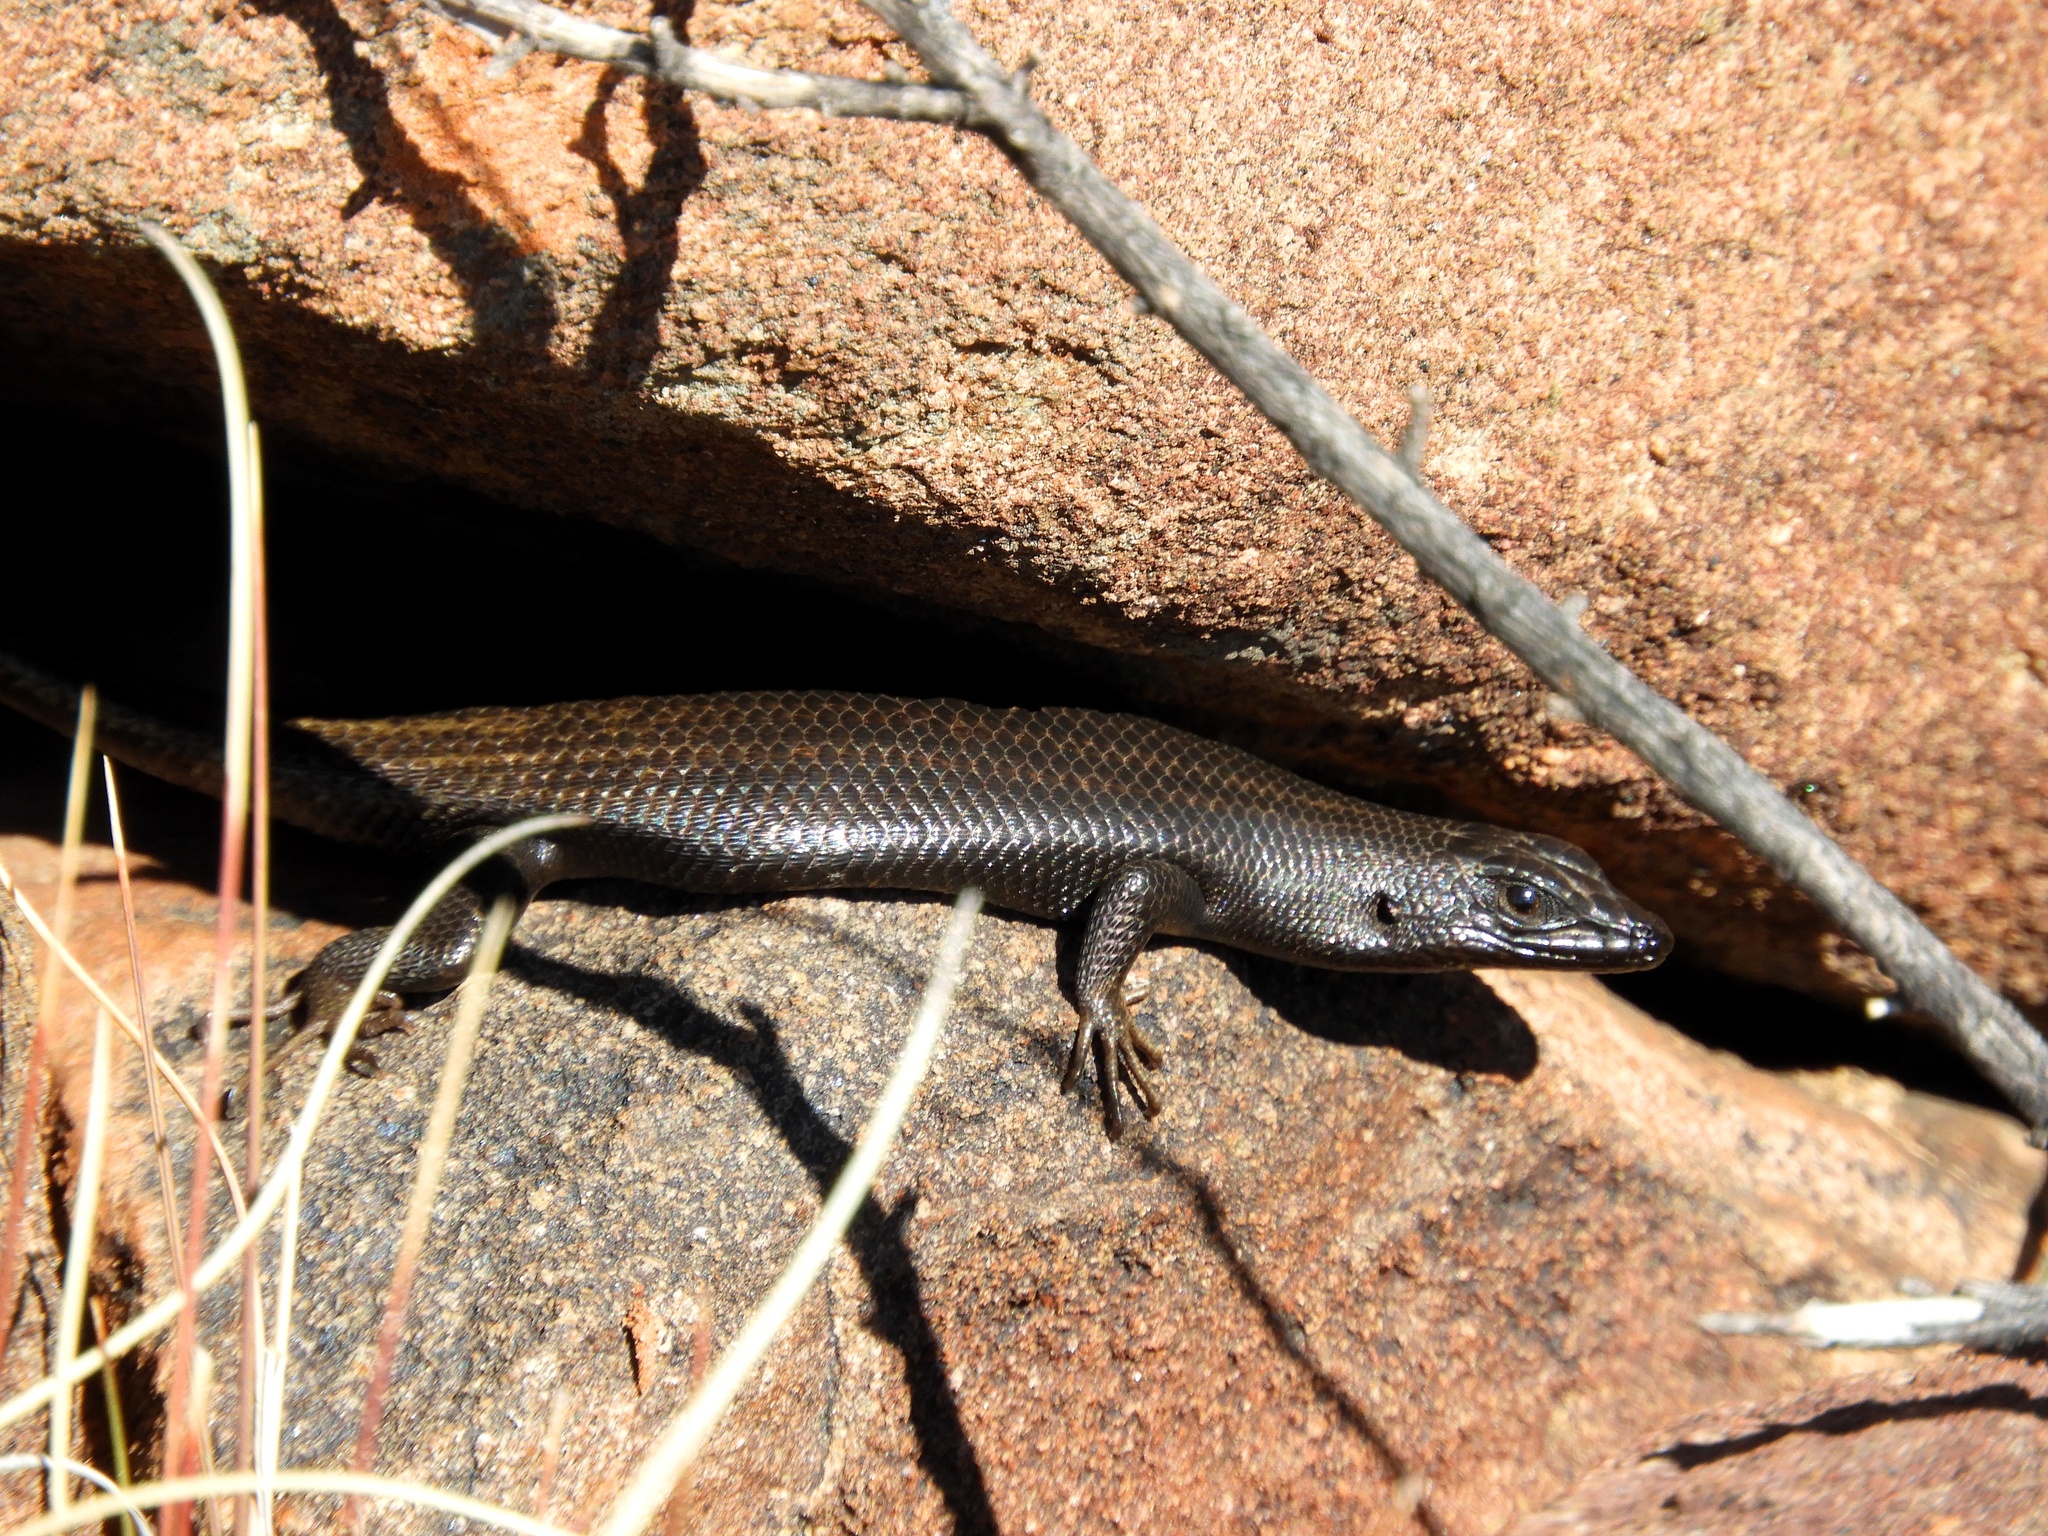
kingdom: Animalia
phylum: Chordata
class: Squamata
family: Scincidae
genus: Trachylepis
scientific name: Trachylepis sulcata
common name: Western rock skink
